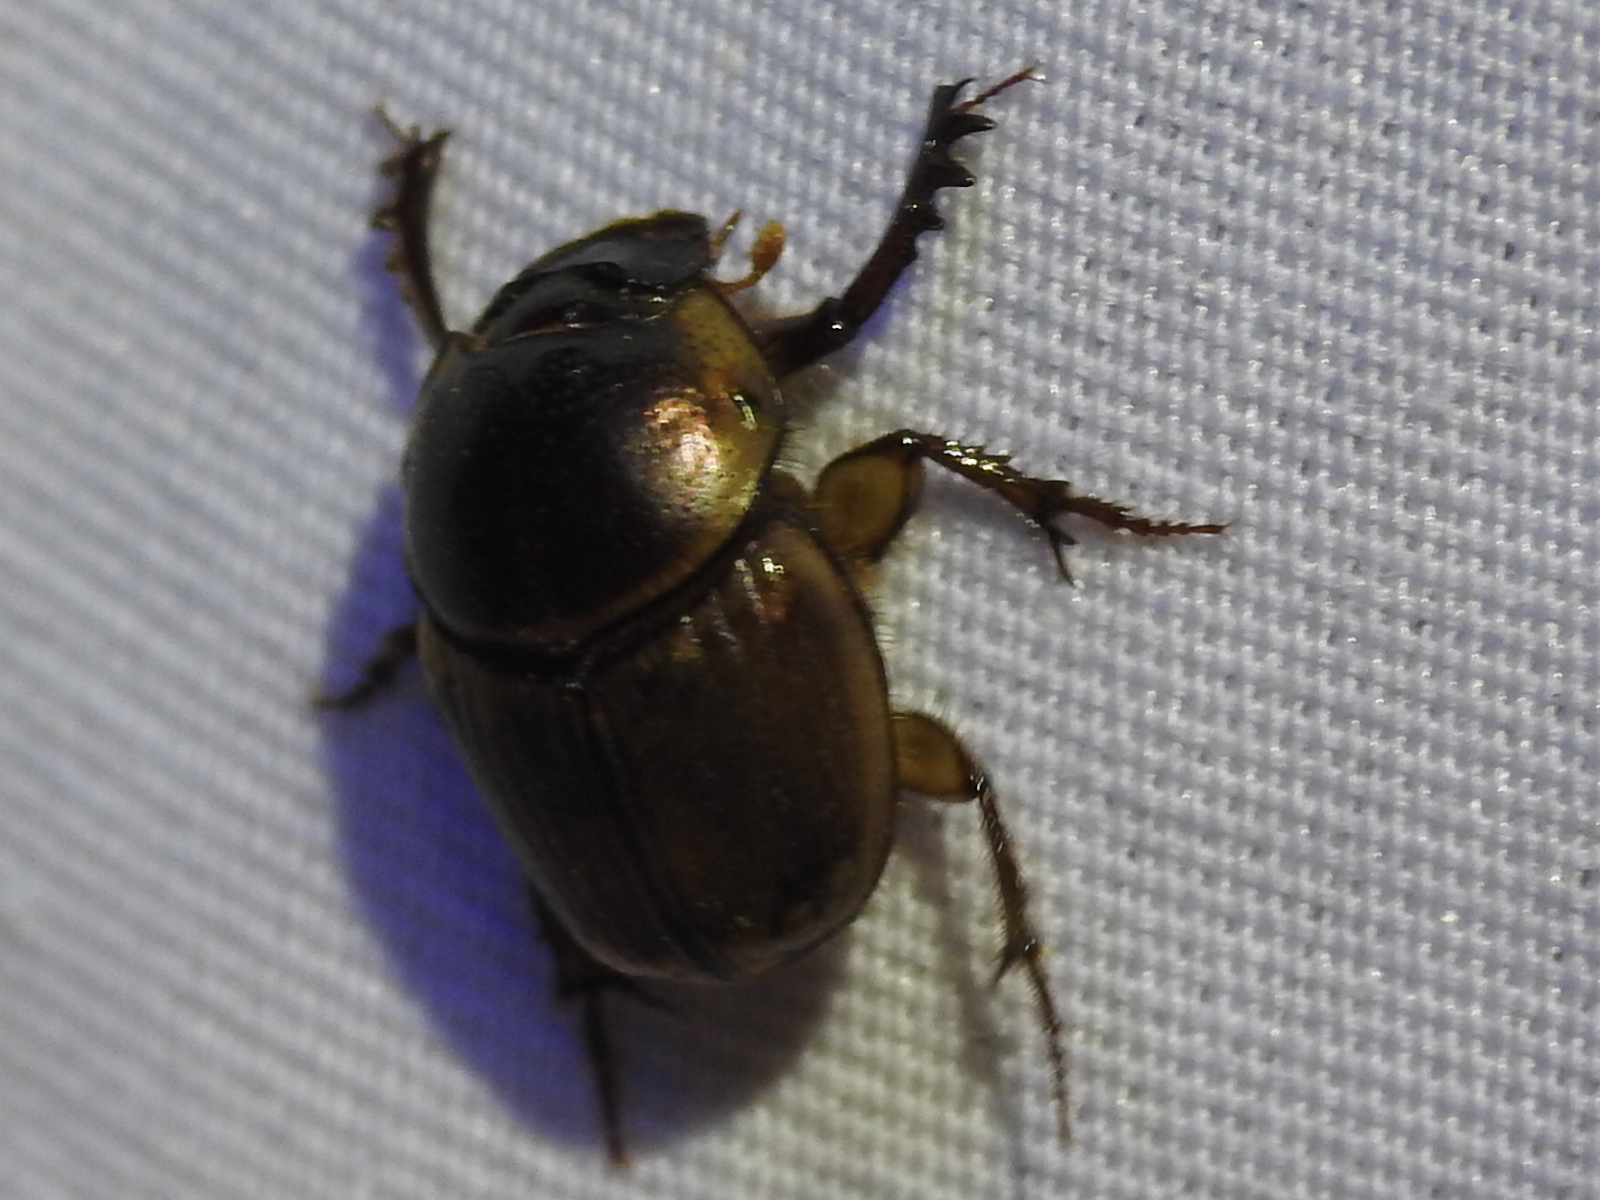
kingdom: Animalia
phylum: Arthropoda
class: Insecta
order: Coleoptera
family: Scarabaeidae
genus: Digitonthophagus
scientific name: Digitonthophagus gazella
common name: Brown dung beetle
